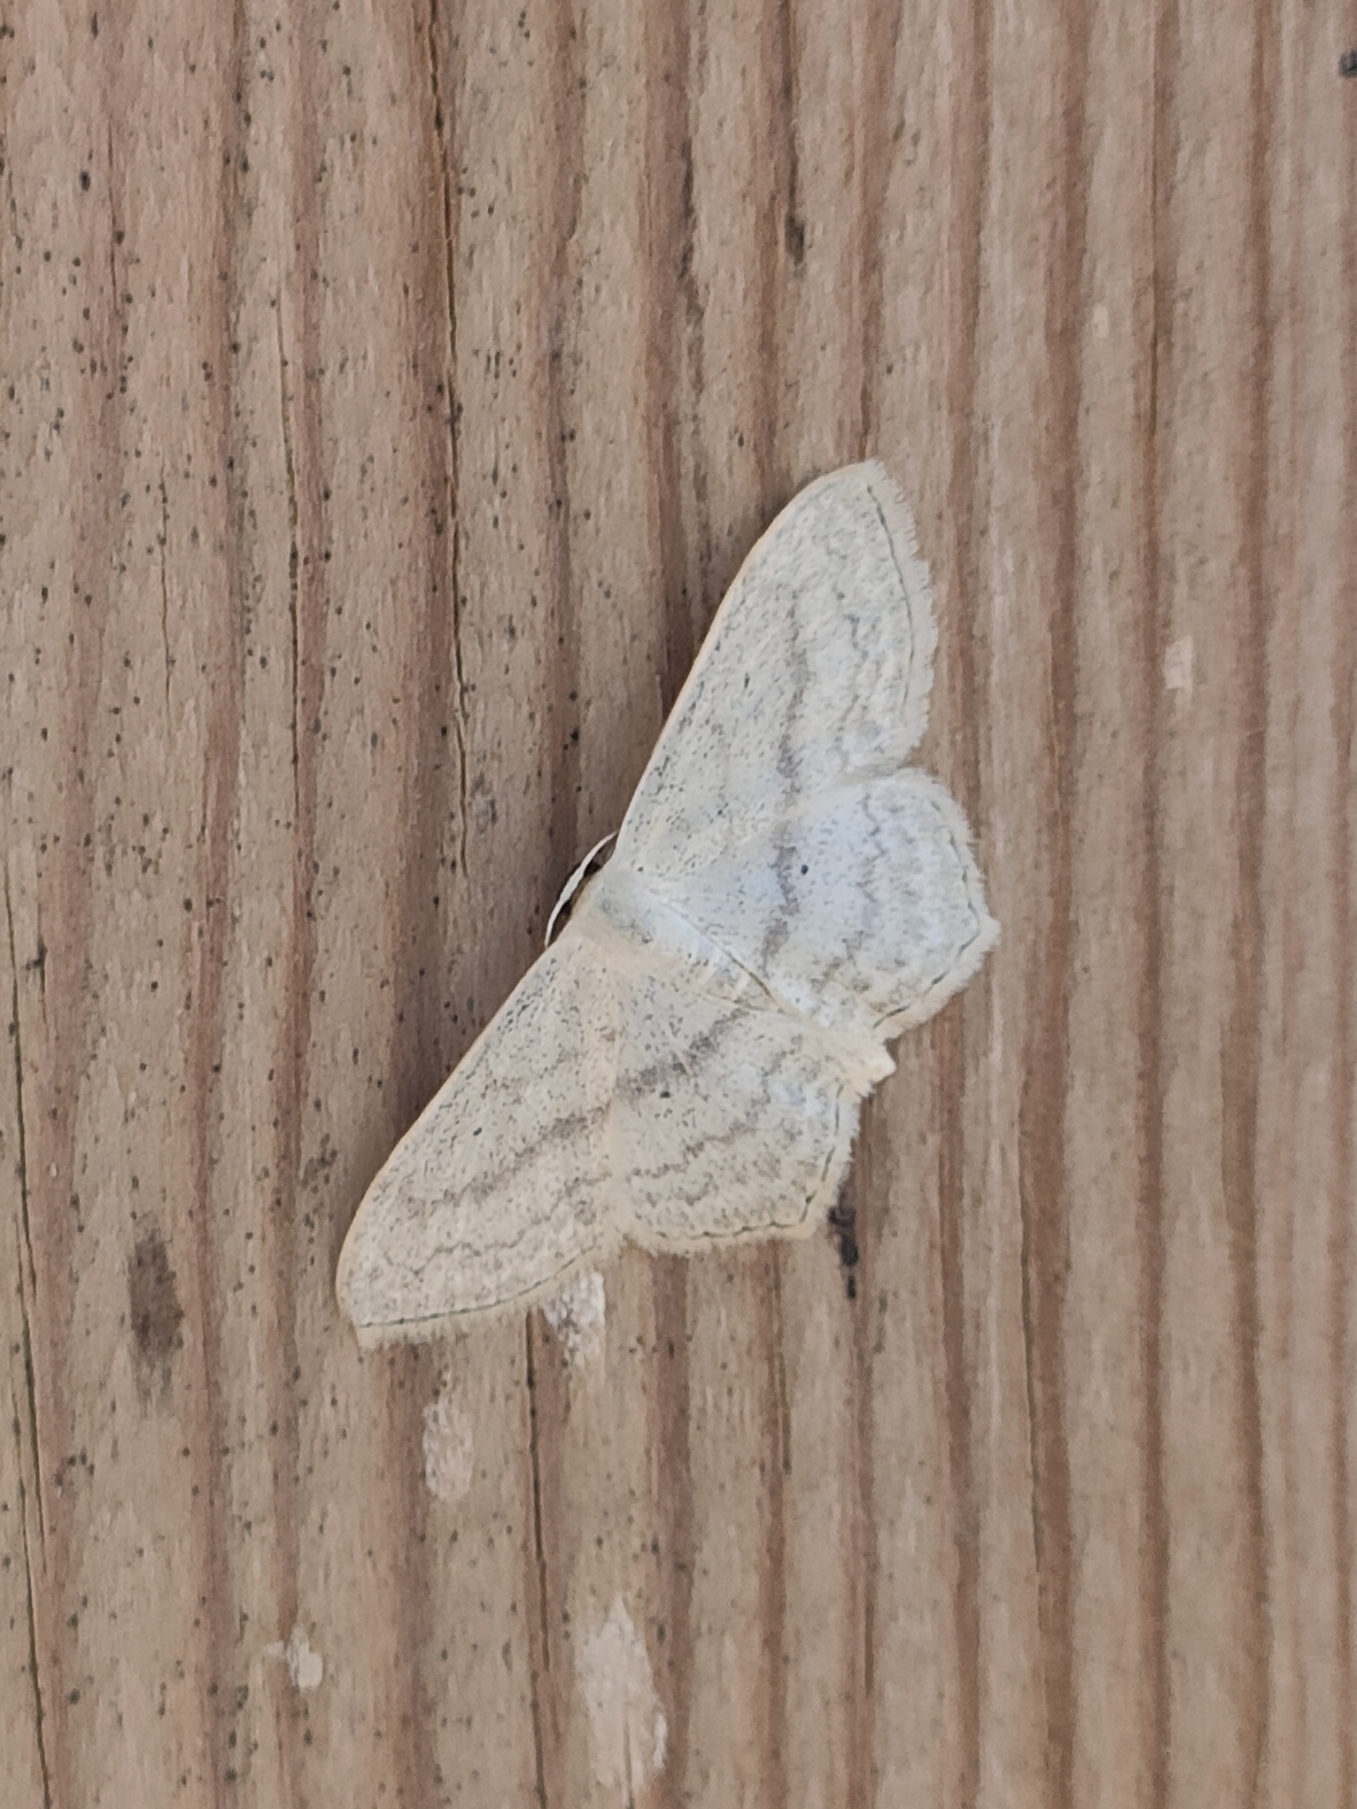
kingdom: Animalia
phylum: Arthropoda
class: Insecta
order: Lepidoptera
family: Geometridae
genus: Scopula
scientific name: Scopula nigropunctata
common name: Sub-angled wave
